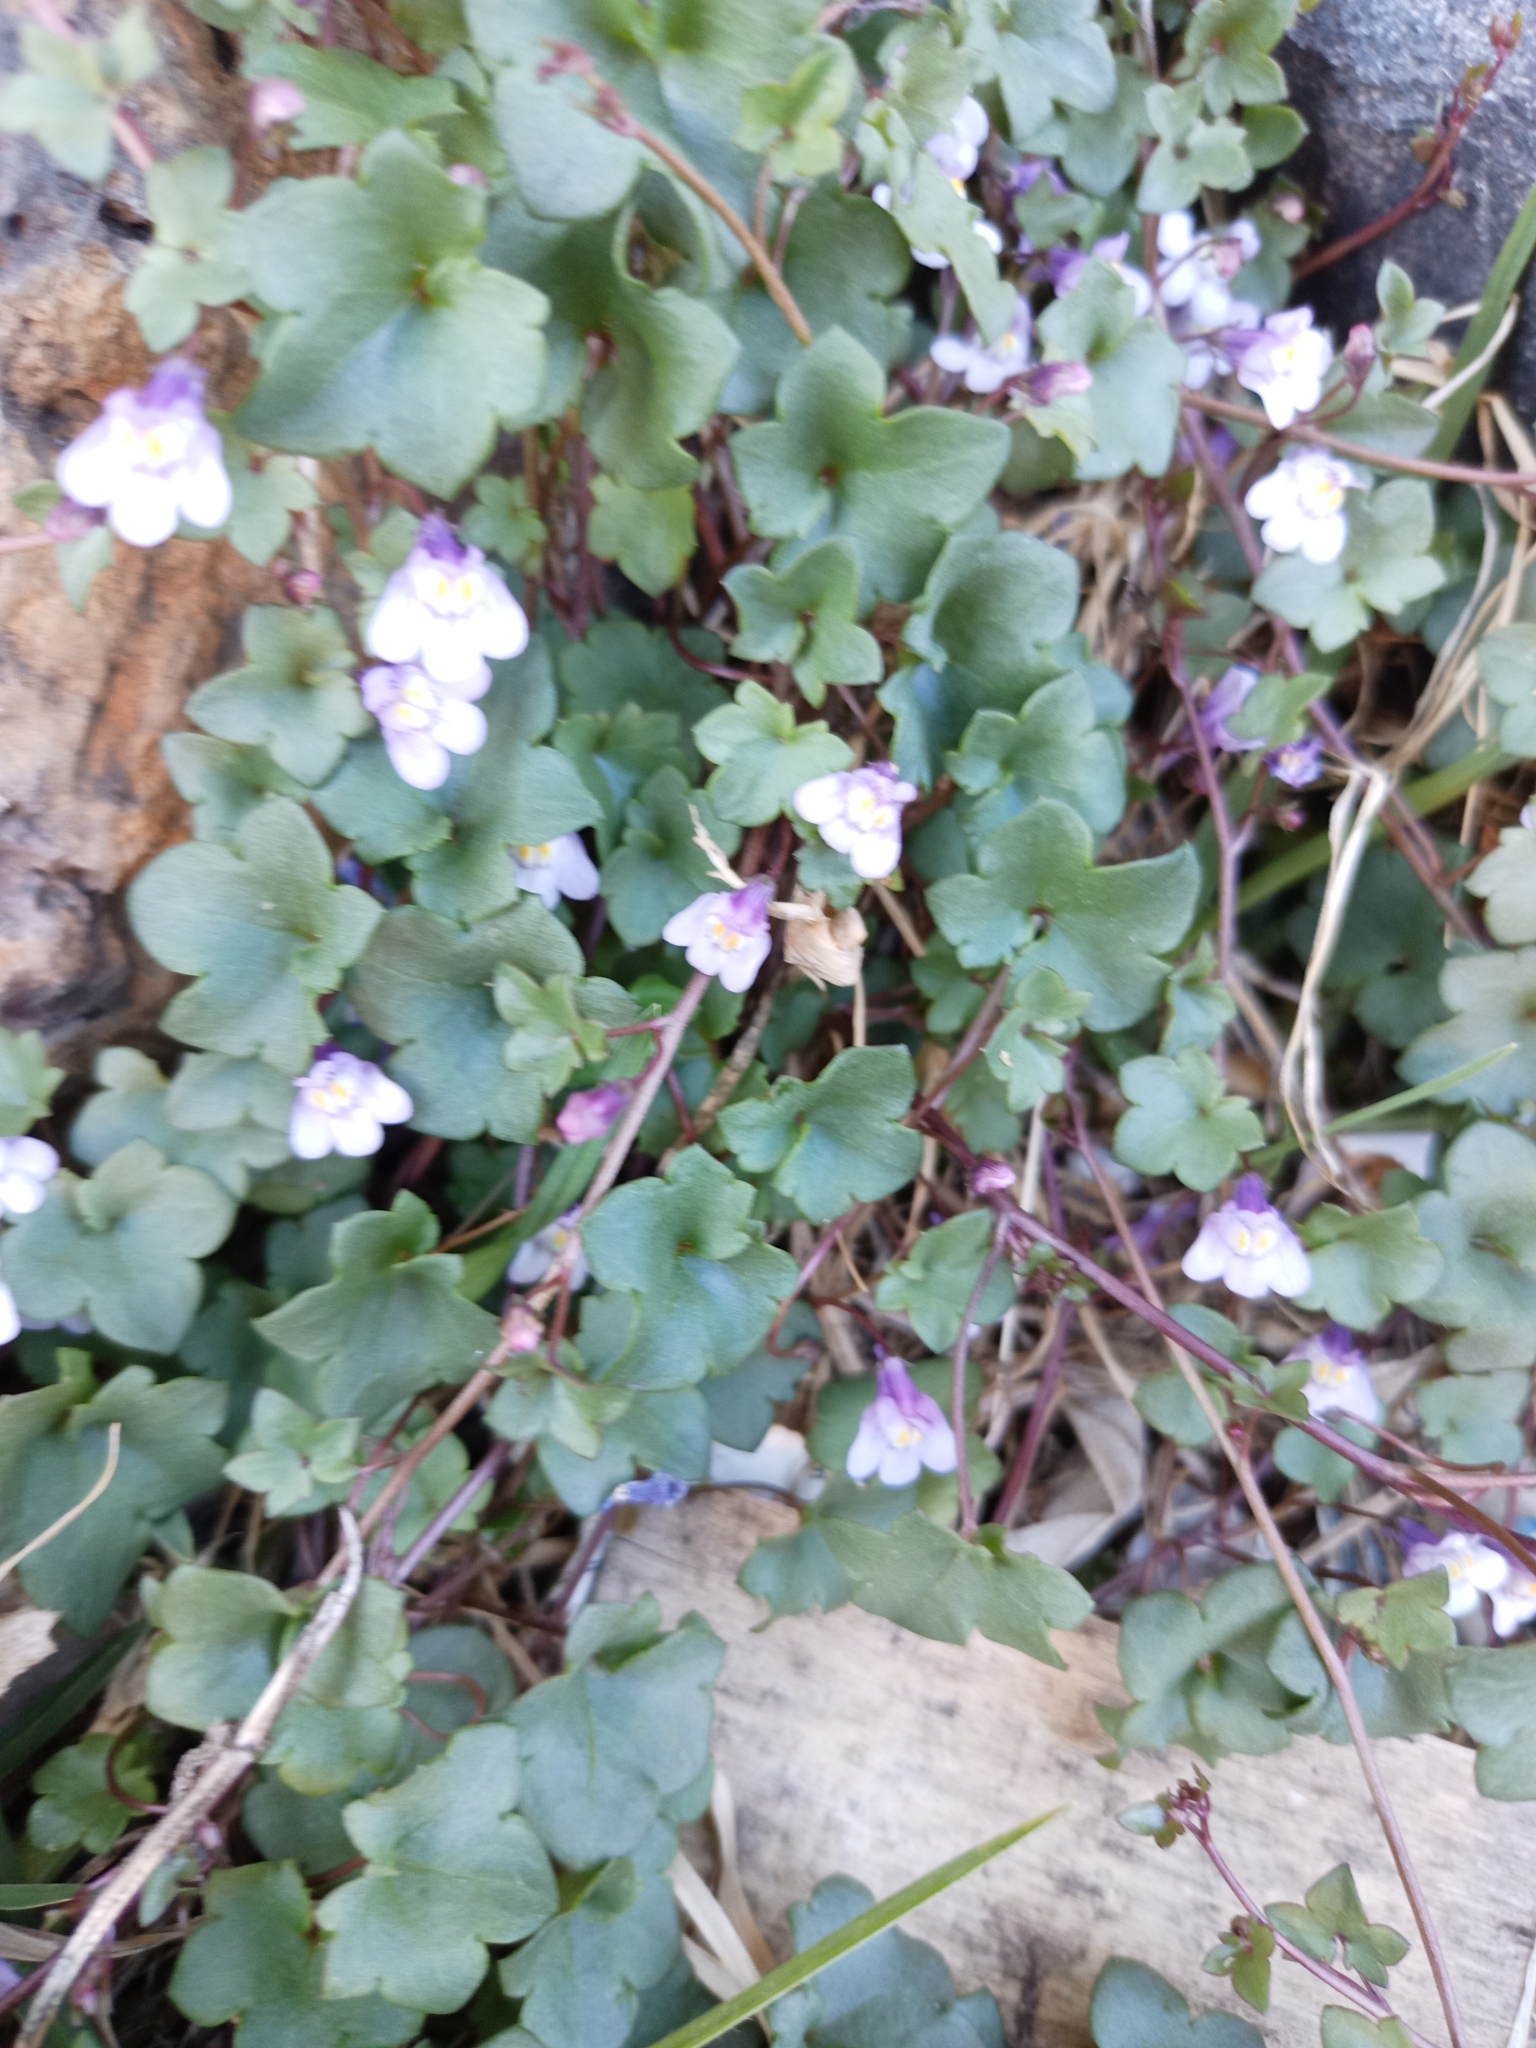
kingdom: Plantae
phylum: Tracheophyta
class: Magnoliopsida
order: Lamiales
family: Plantaginaceae
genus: Cymbalaria
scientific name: Cymbalaria muralis
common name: Ivy-leaved toadflax
